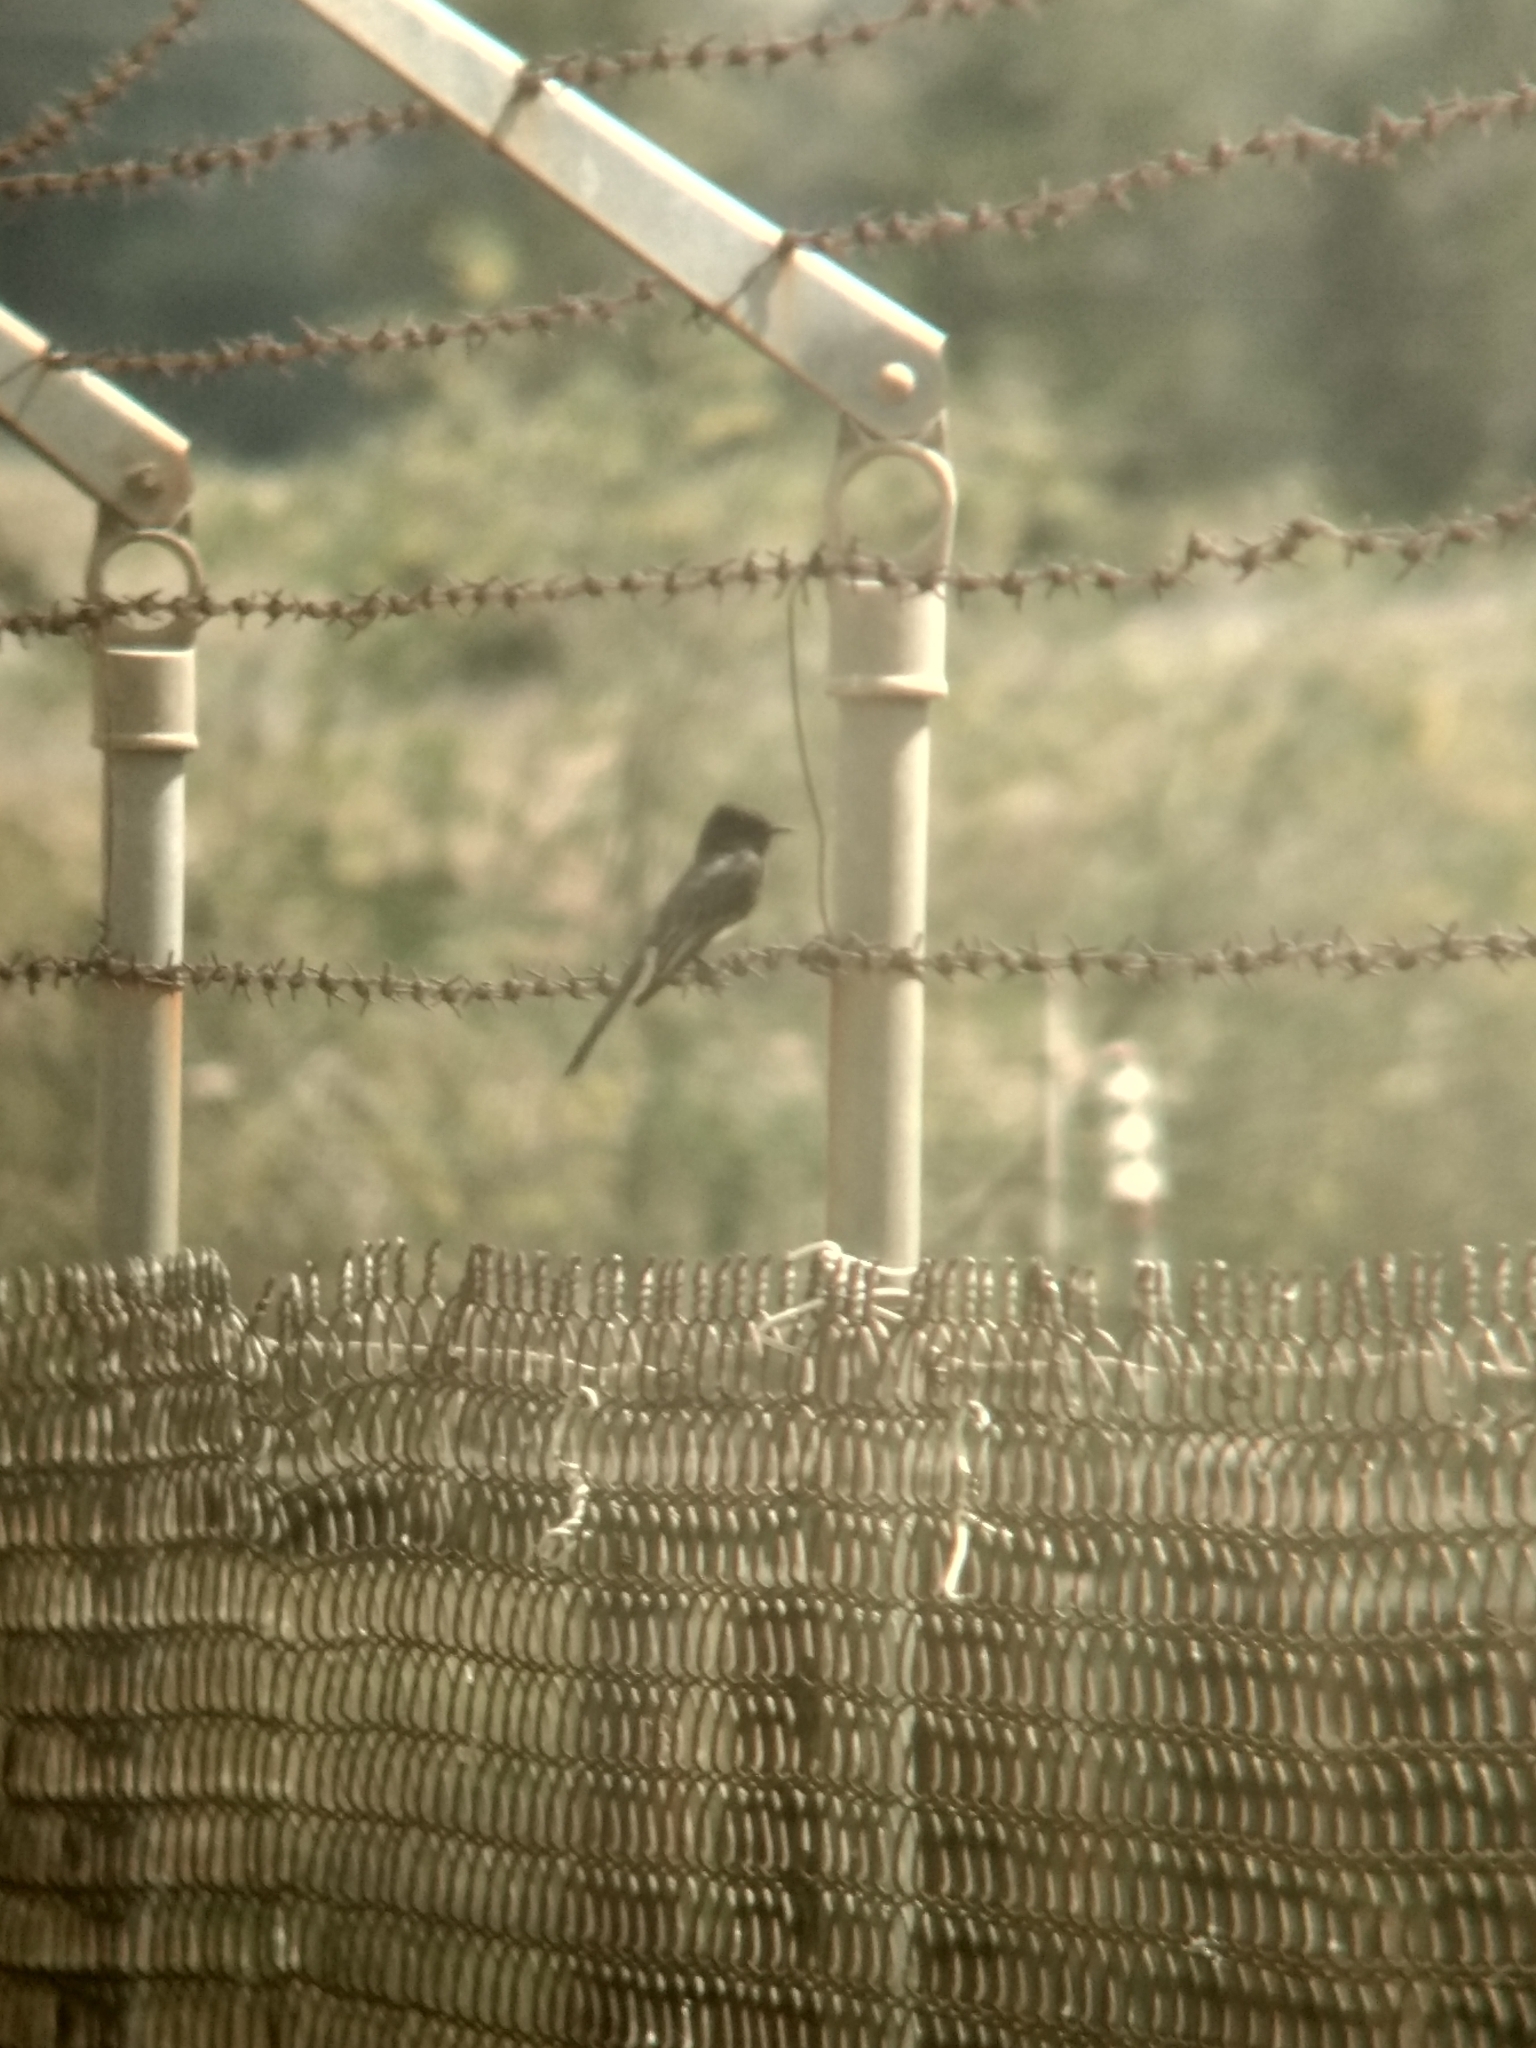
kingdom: Animalia
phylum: Chordata
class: Aves
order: Passeriformes
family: Tyrannidae
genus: Sayornis
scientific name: Sayornis nigricans
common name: Black phoebe
